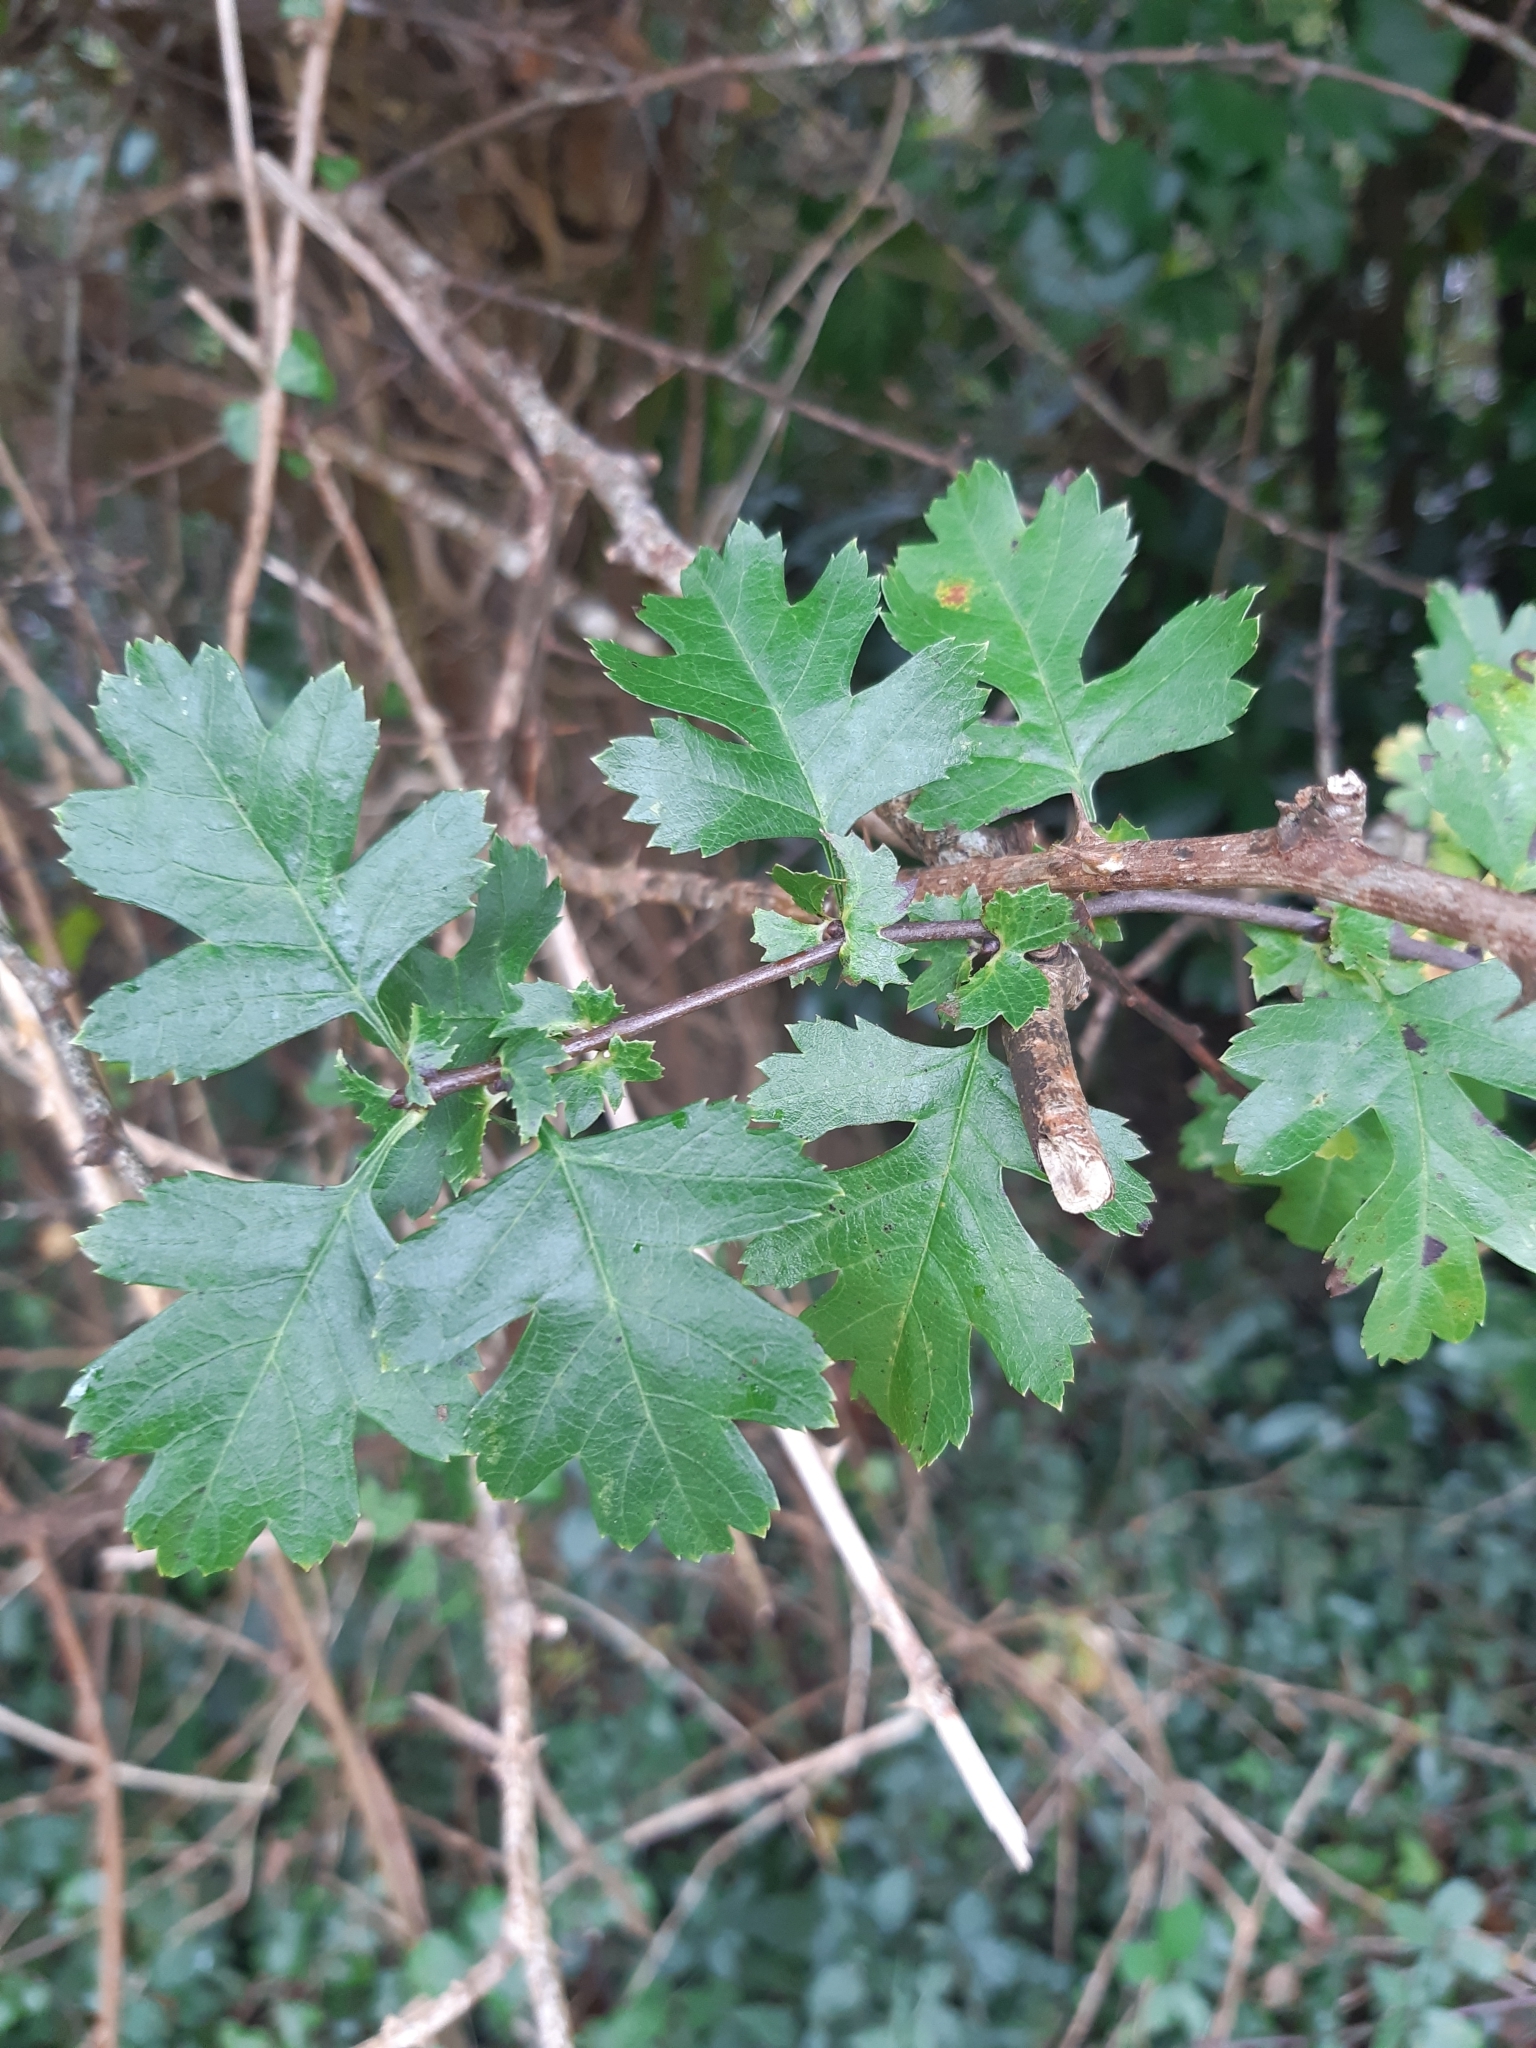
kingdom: Plantae
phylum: Tracheophyta
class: Magnoliopsida
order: Rosales
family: Rosaceae
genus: Crataegus
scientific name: Crataegus monogyna
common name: Hawthorn
